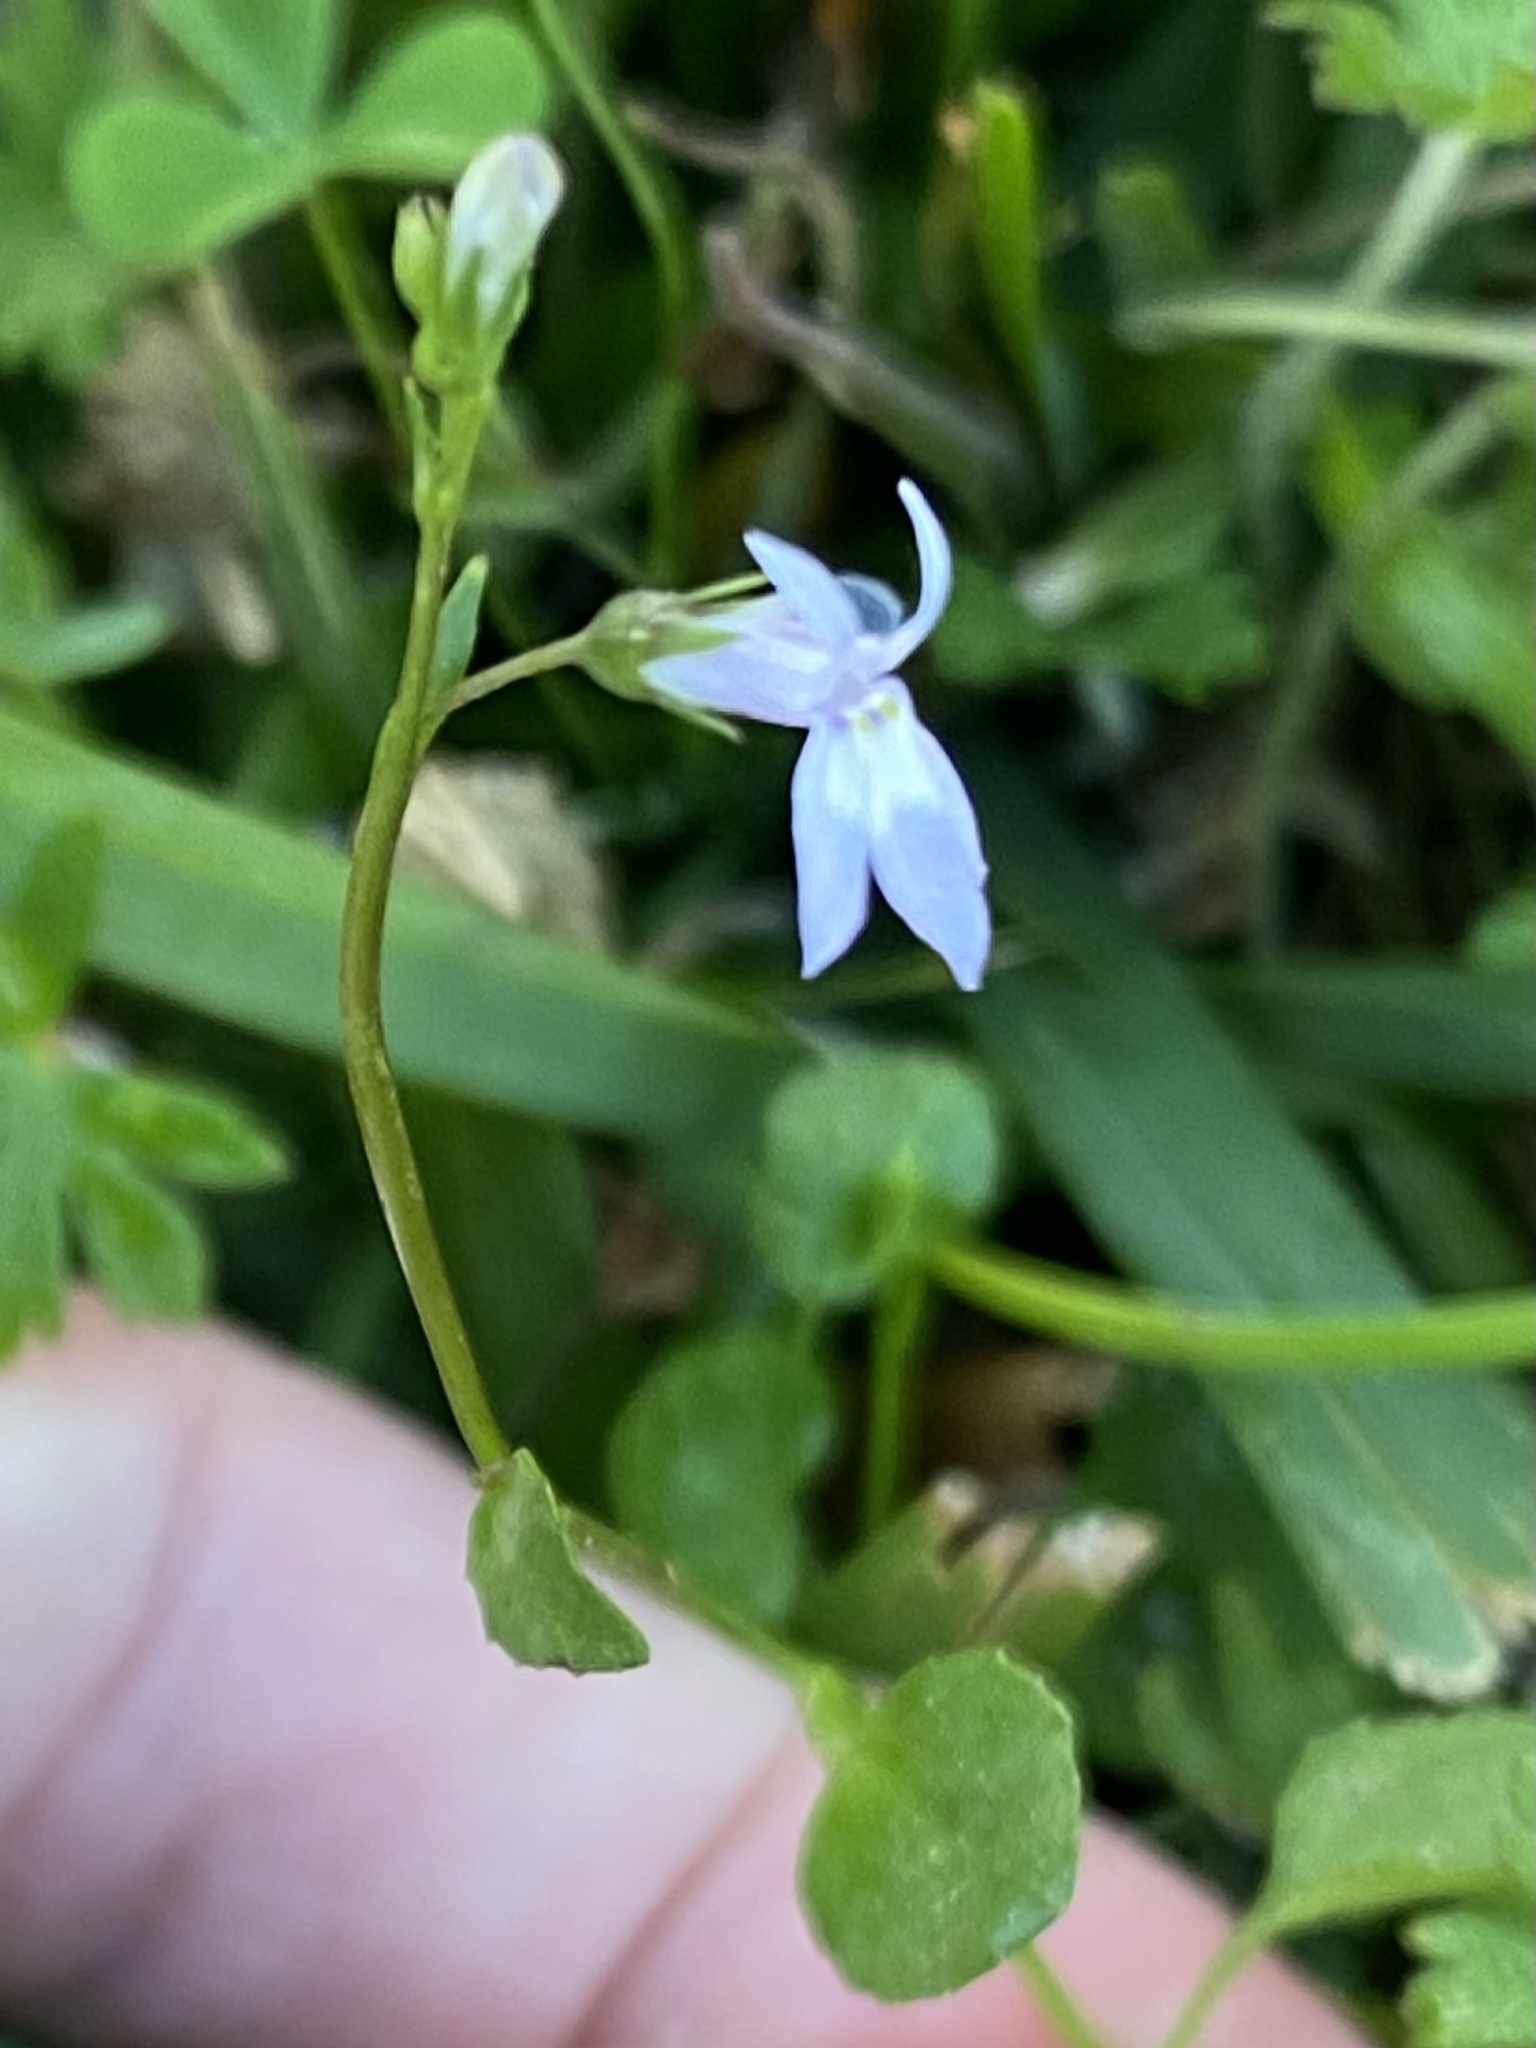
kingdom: Plantae
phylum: Tracheophyta
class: Magnoliopsida
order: Asterales
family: Campanulaceae
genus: Lobelia
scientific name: Lobelia feayana
